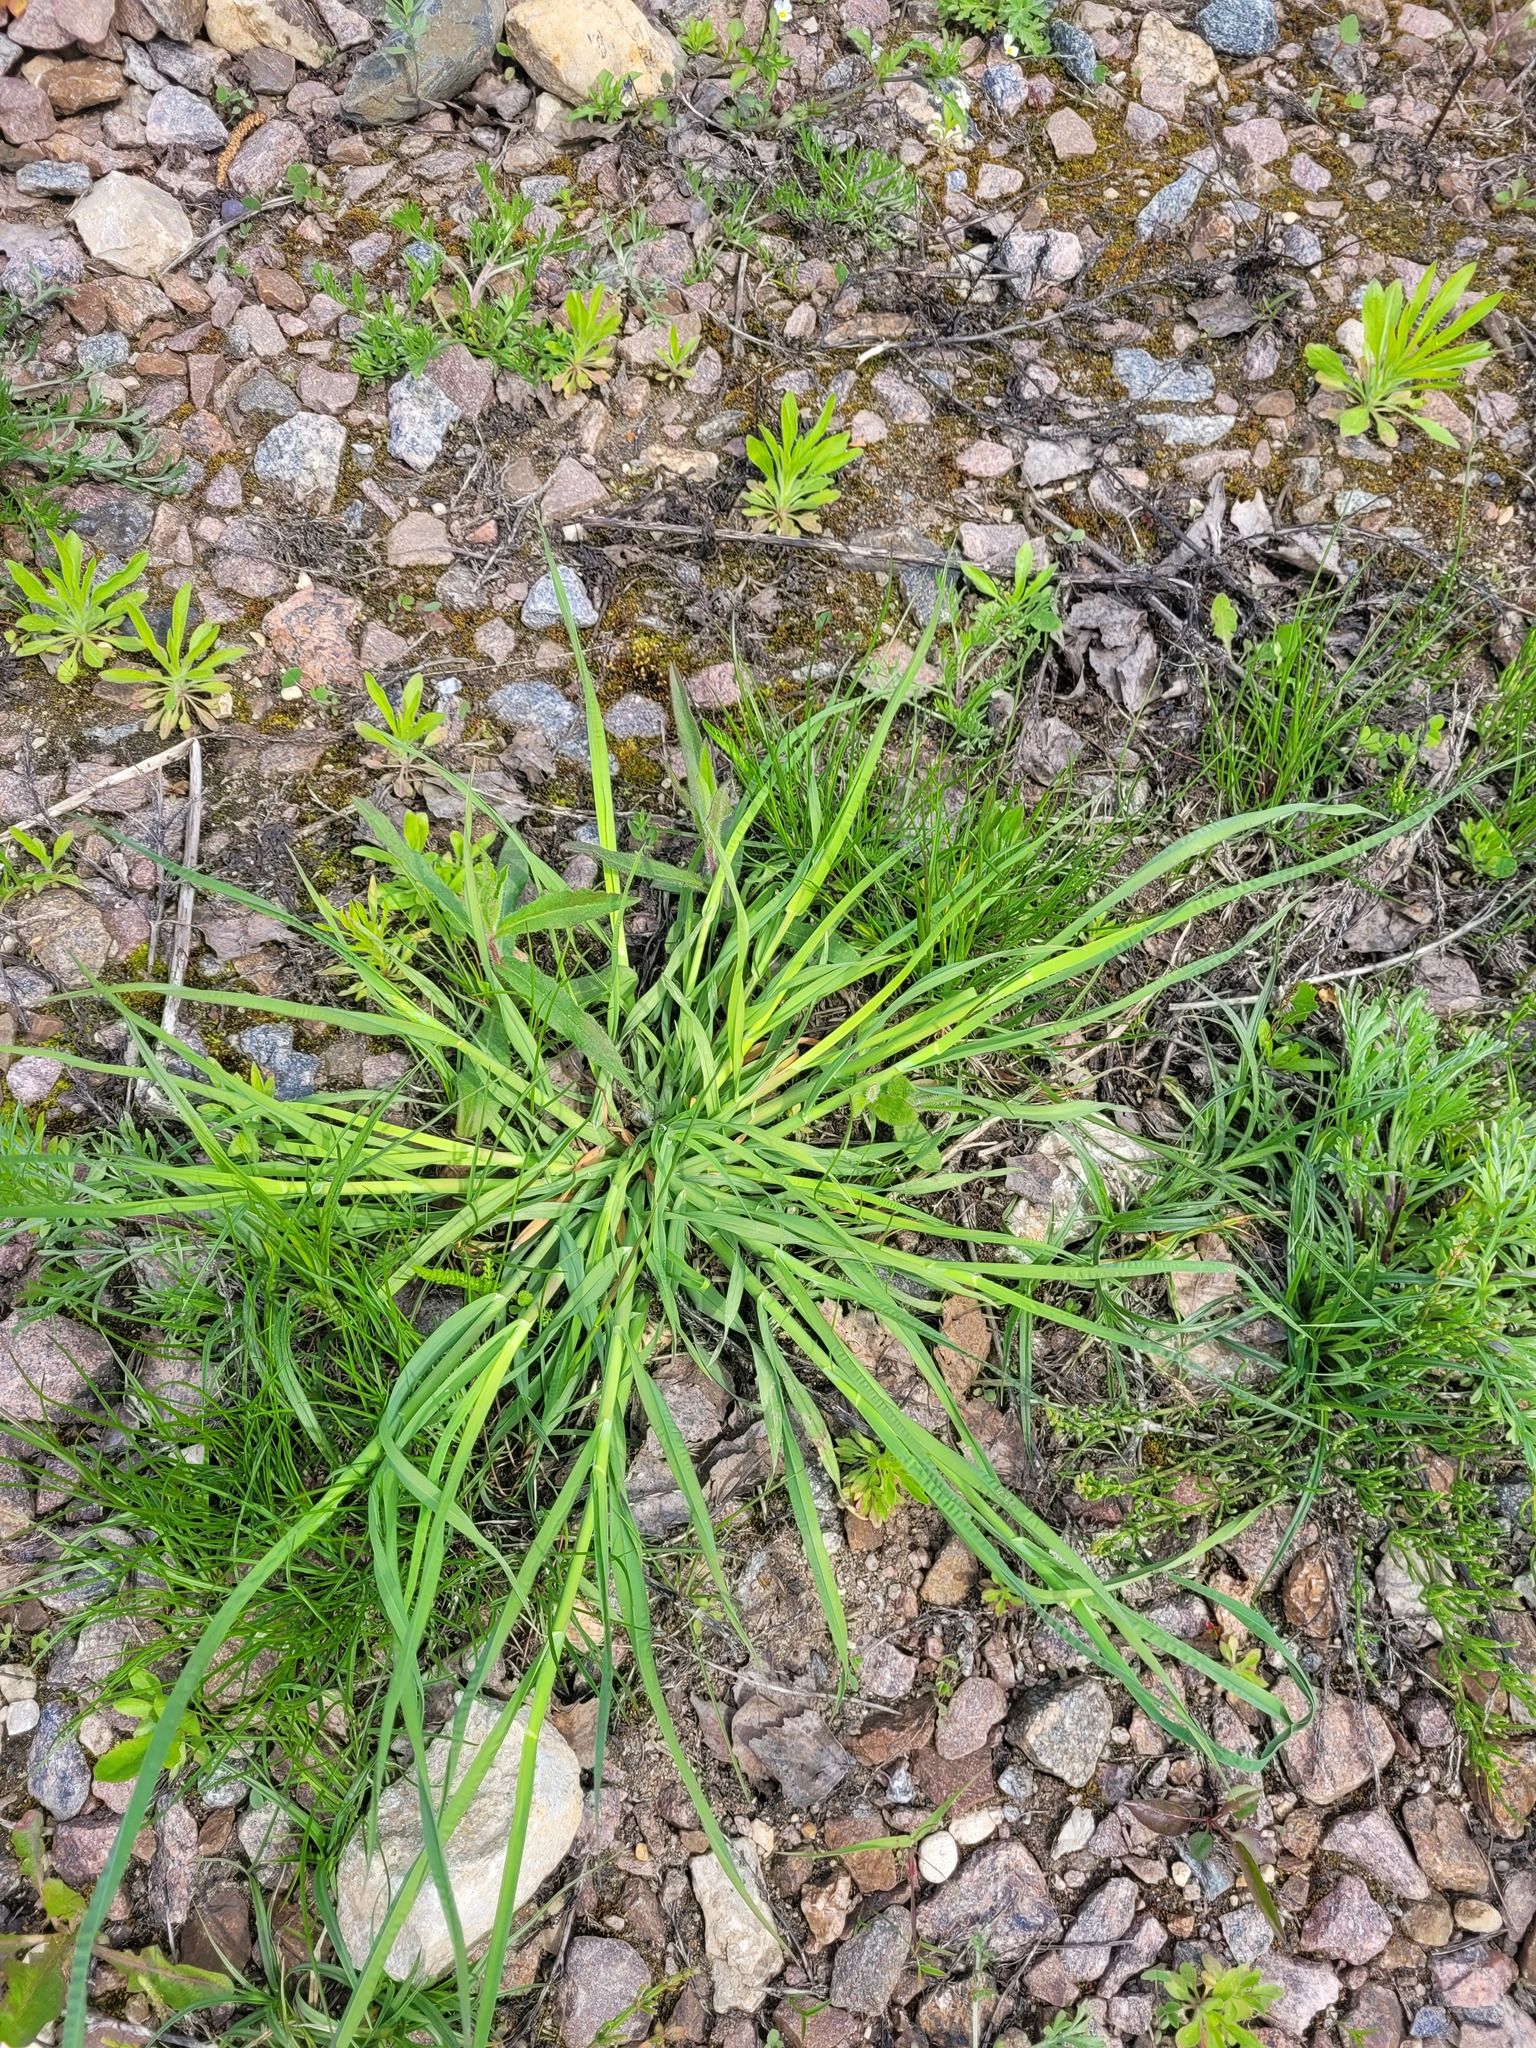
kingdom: Plantae
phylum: Tracheophyta
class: Liliopsida
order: Poales
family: Poaceae
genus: Dactylis
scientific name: Dactylis glomerata
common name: Orchardgrass
